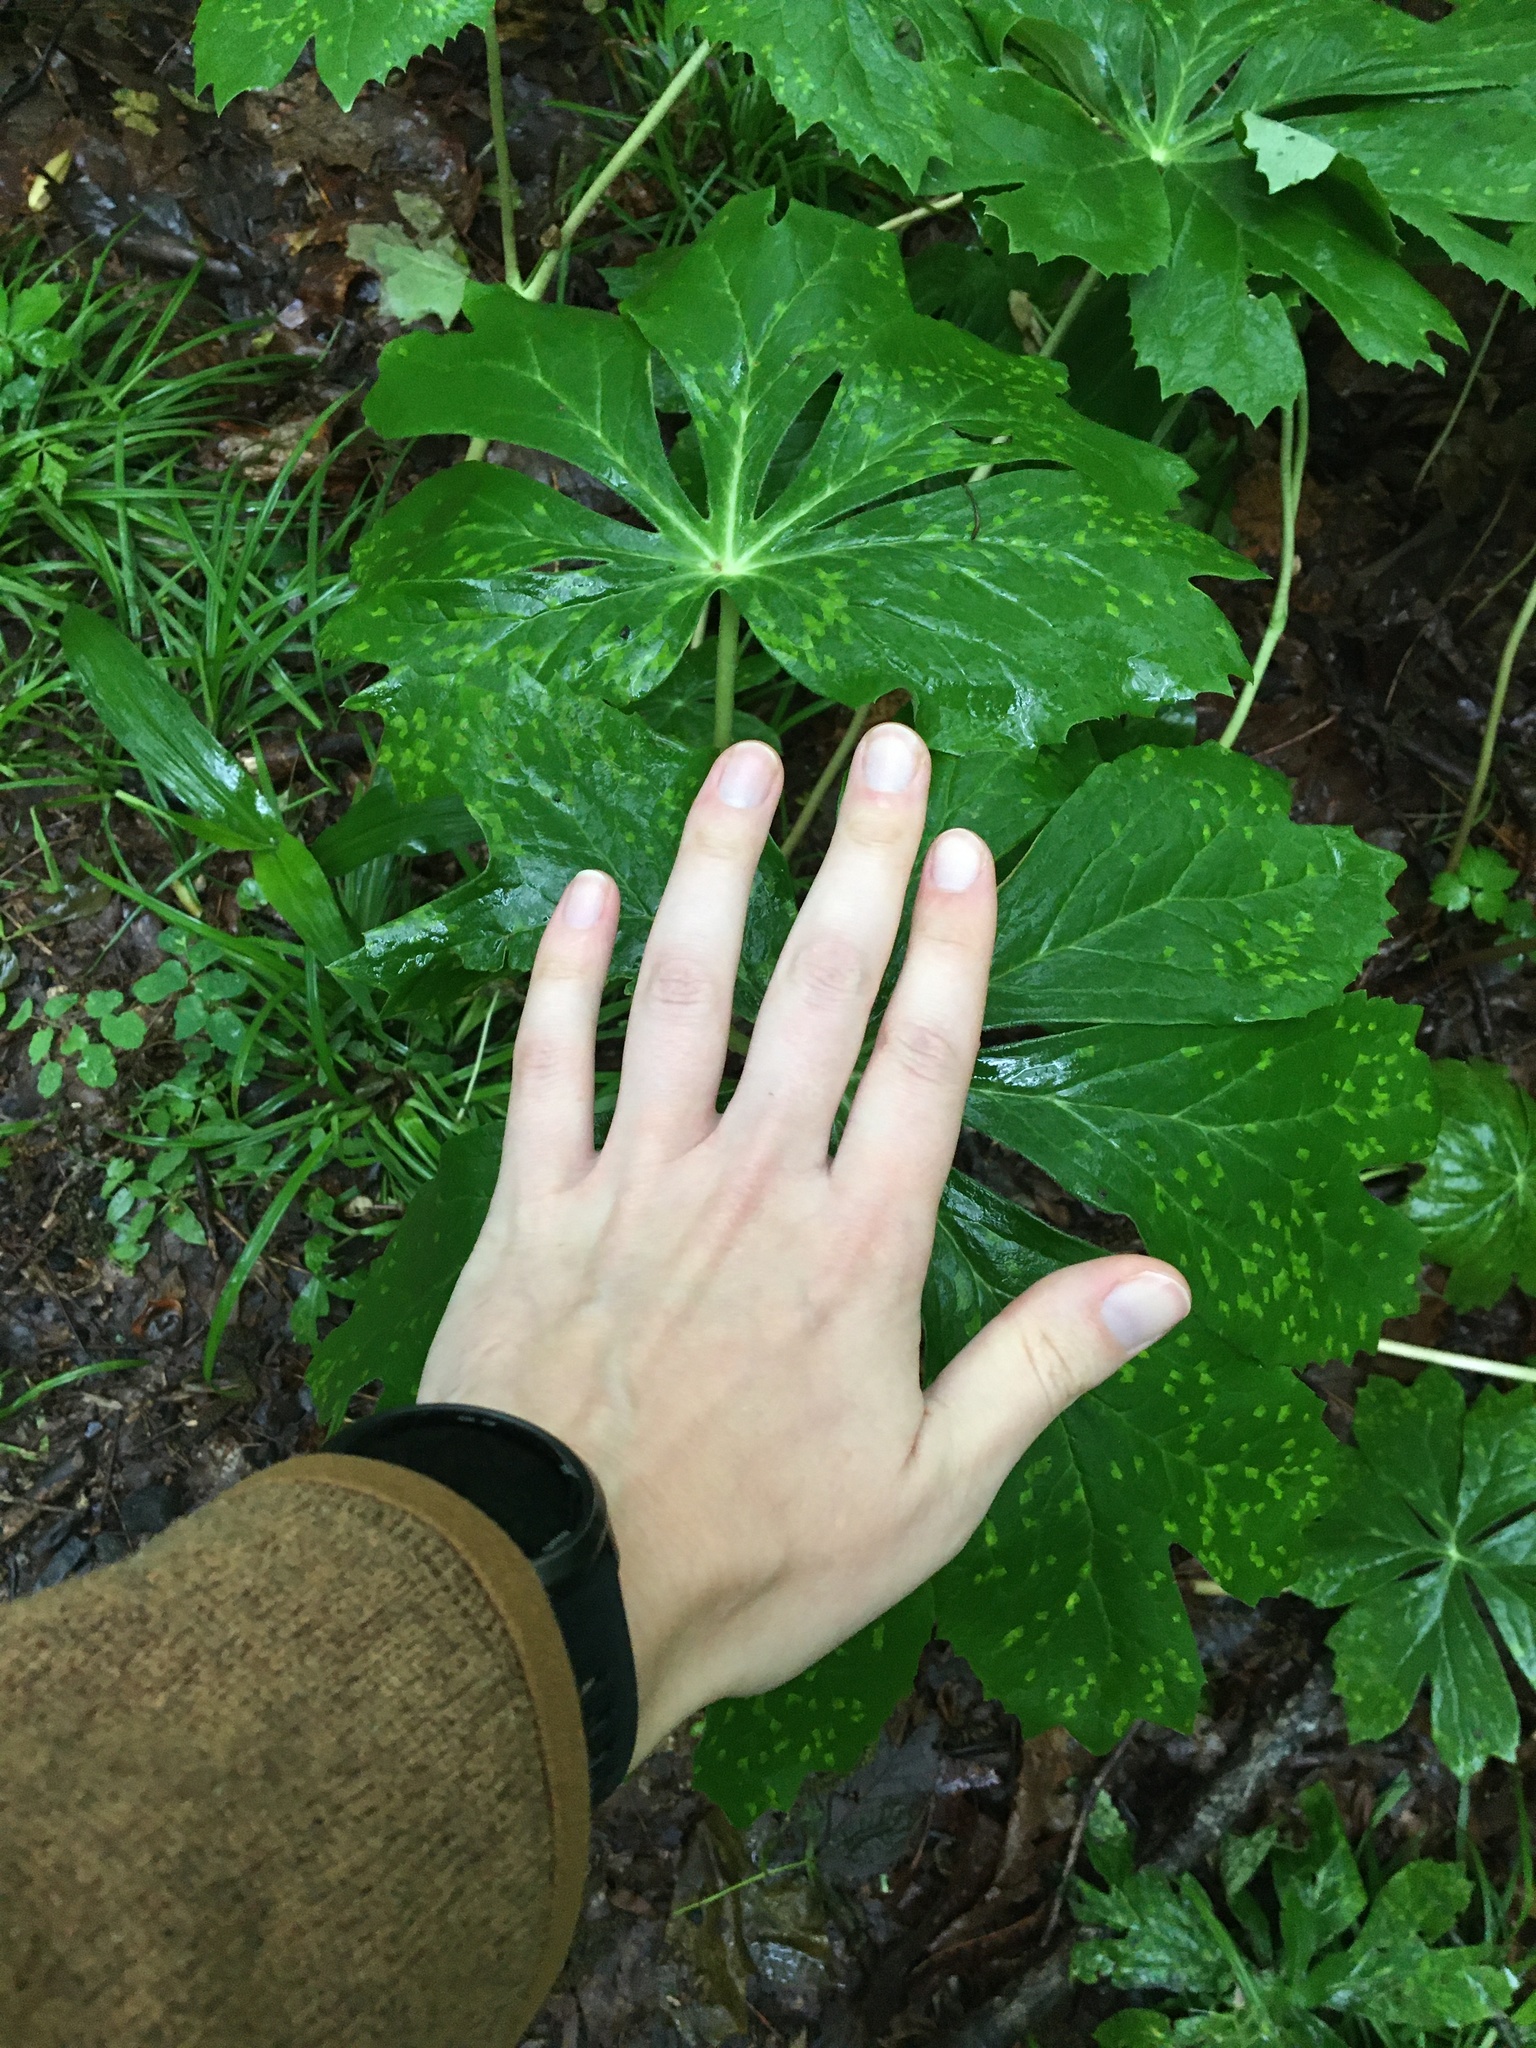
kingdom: Plantae
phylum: Tracheophyta
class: Magnoliopsida
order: Ranunculales
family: Berberidaceae
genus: Podophyllum
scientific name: Podophyllum peltatum
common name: Wild mandrake
